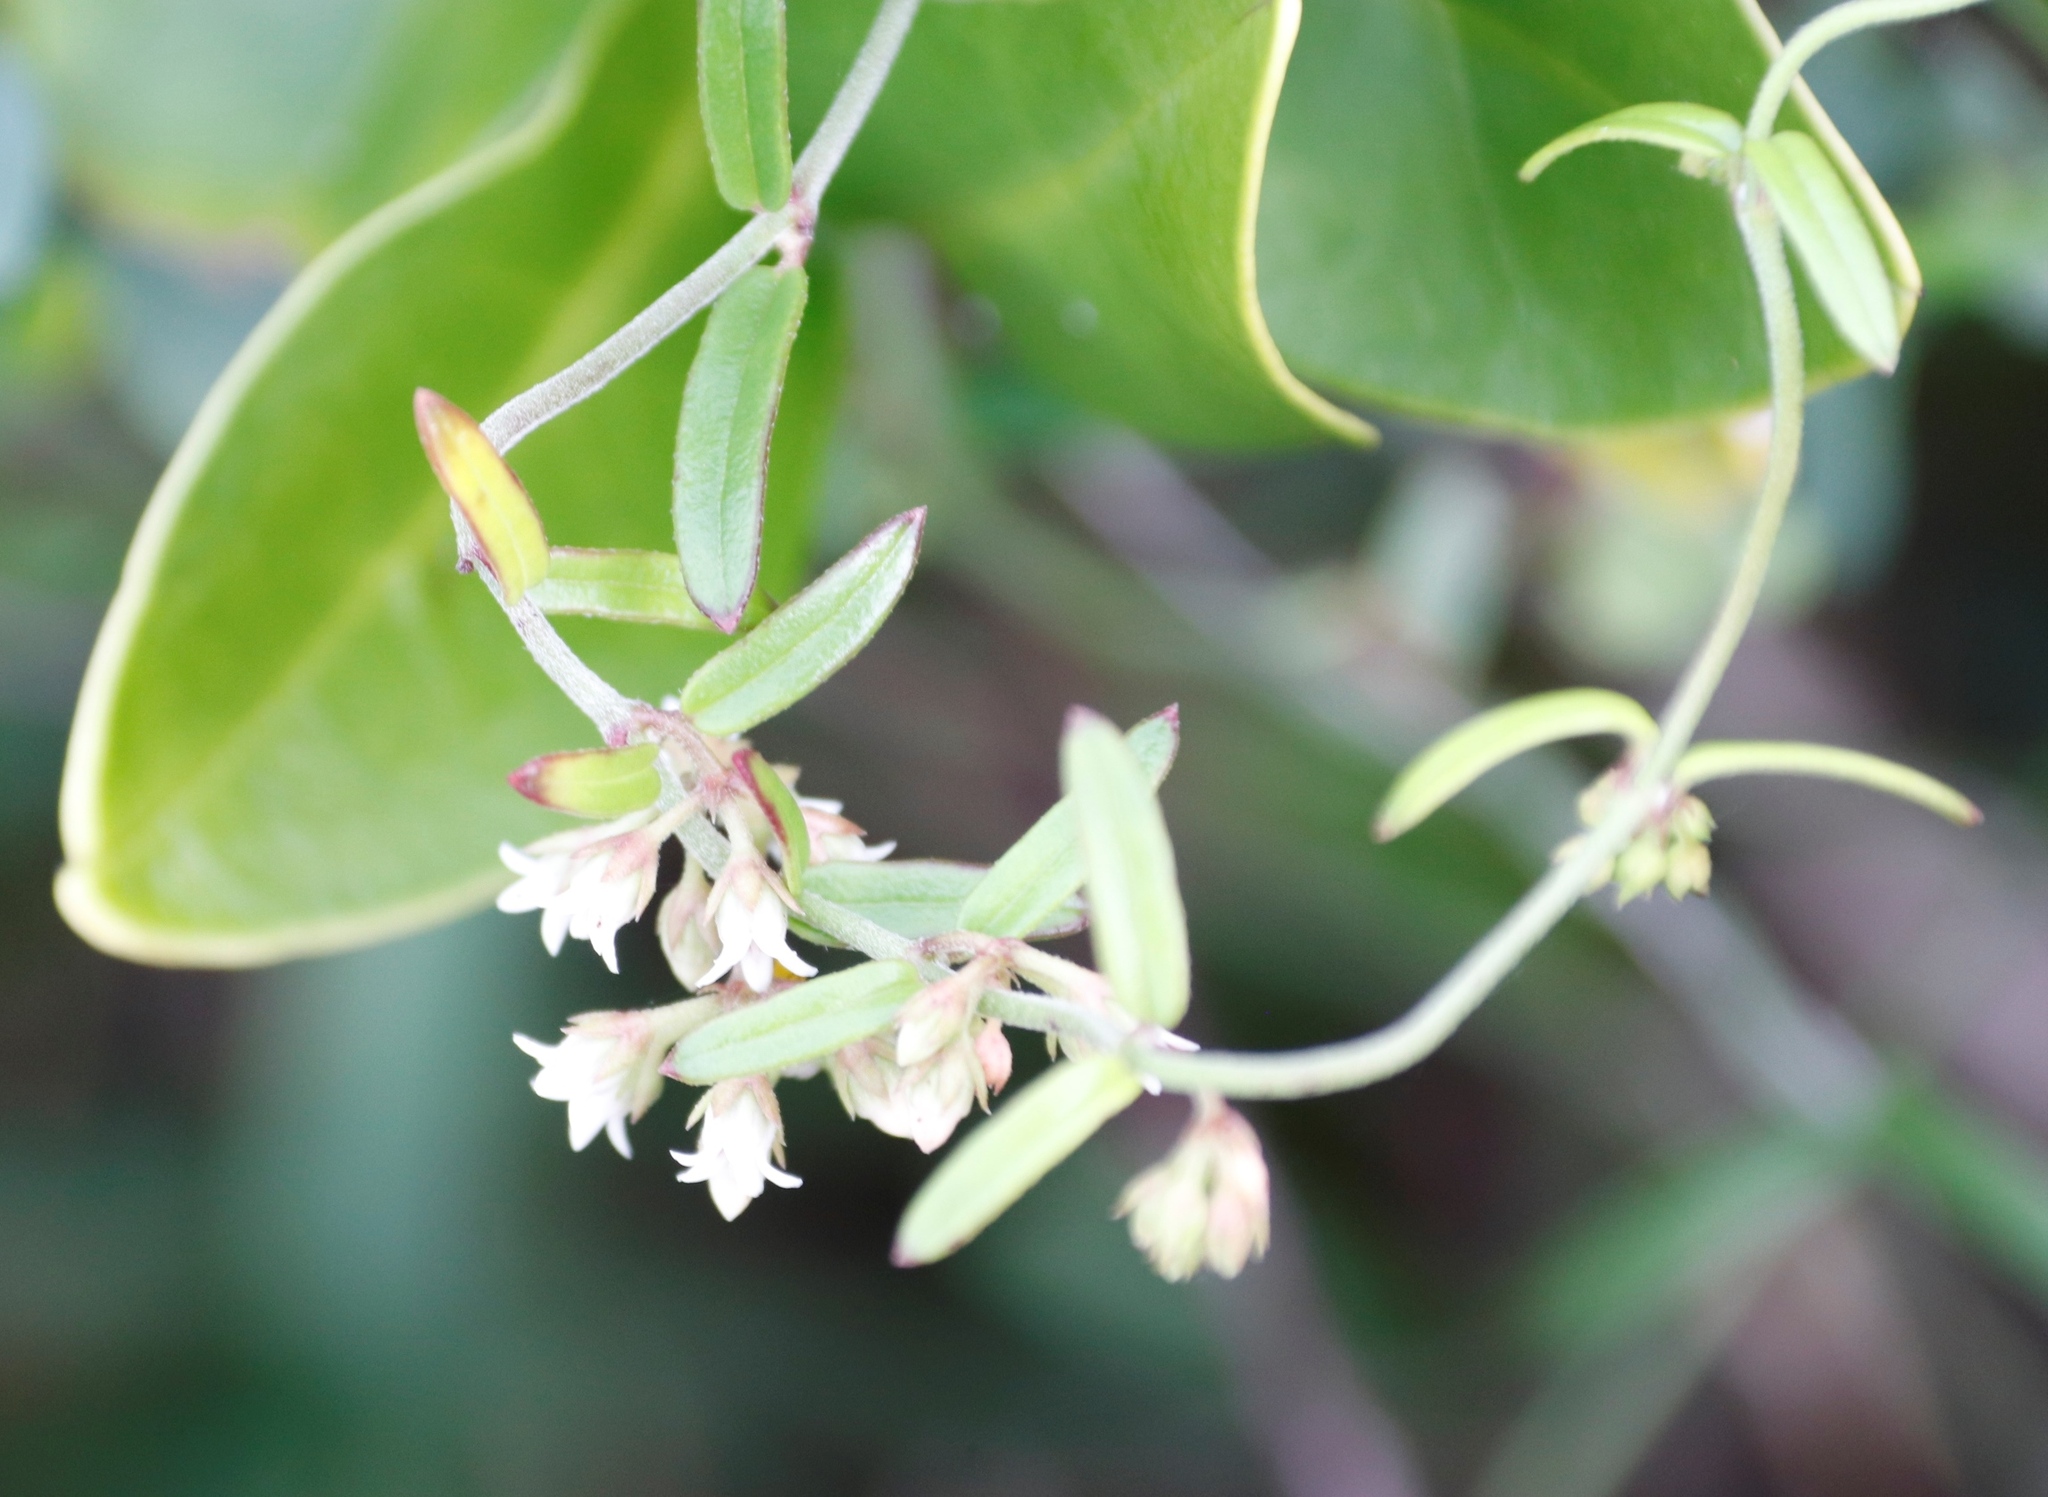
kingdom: Plantae
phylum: Tracheophyta
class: Magnoliopsida
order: Gentianales
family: Apocynaceae
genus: Astephanus
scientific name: Astephanus triflorus
